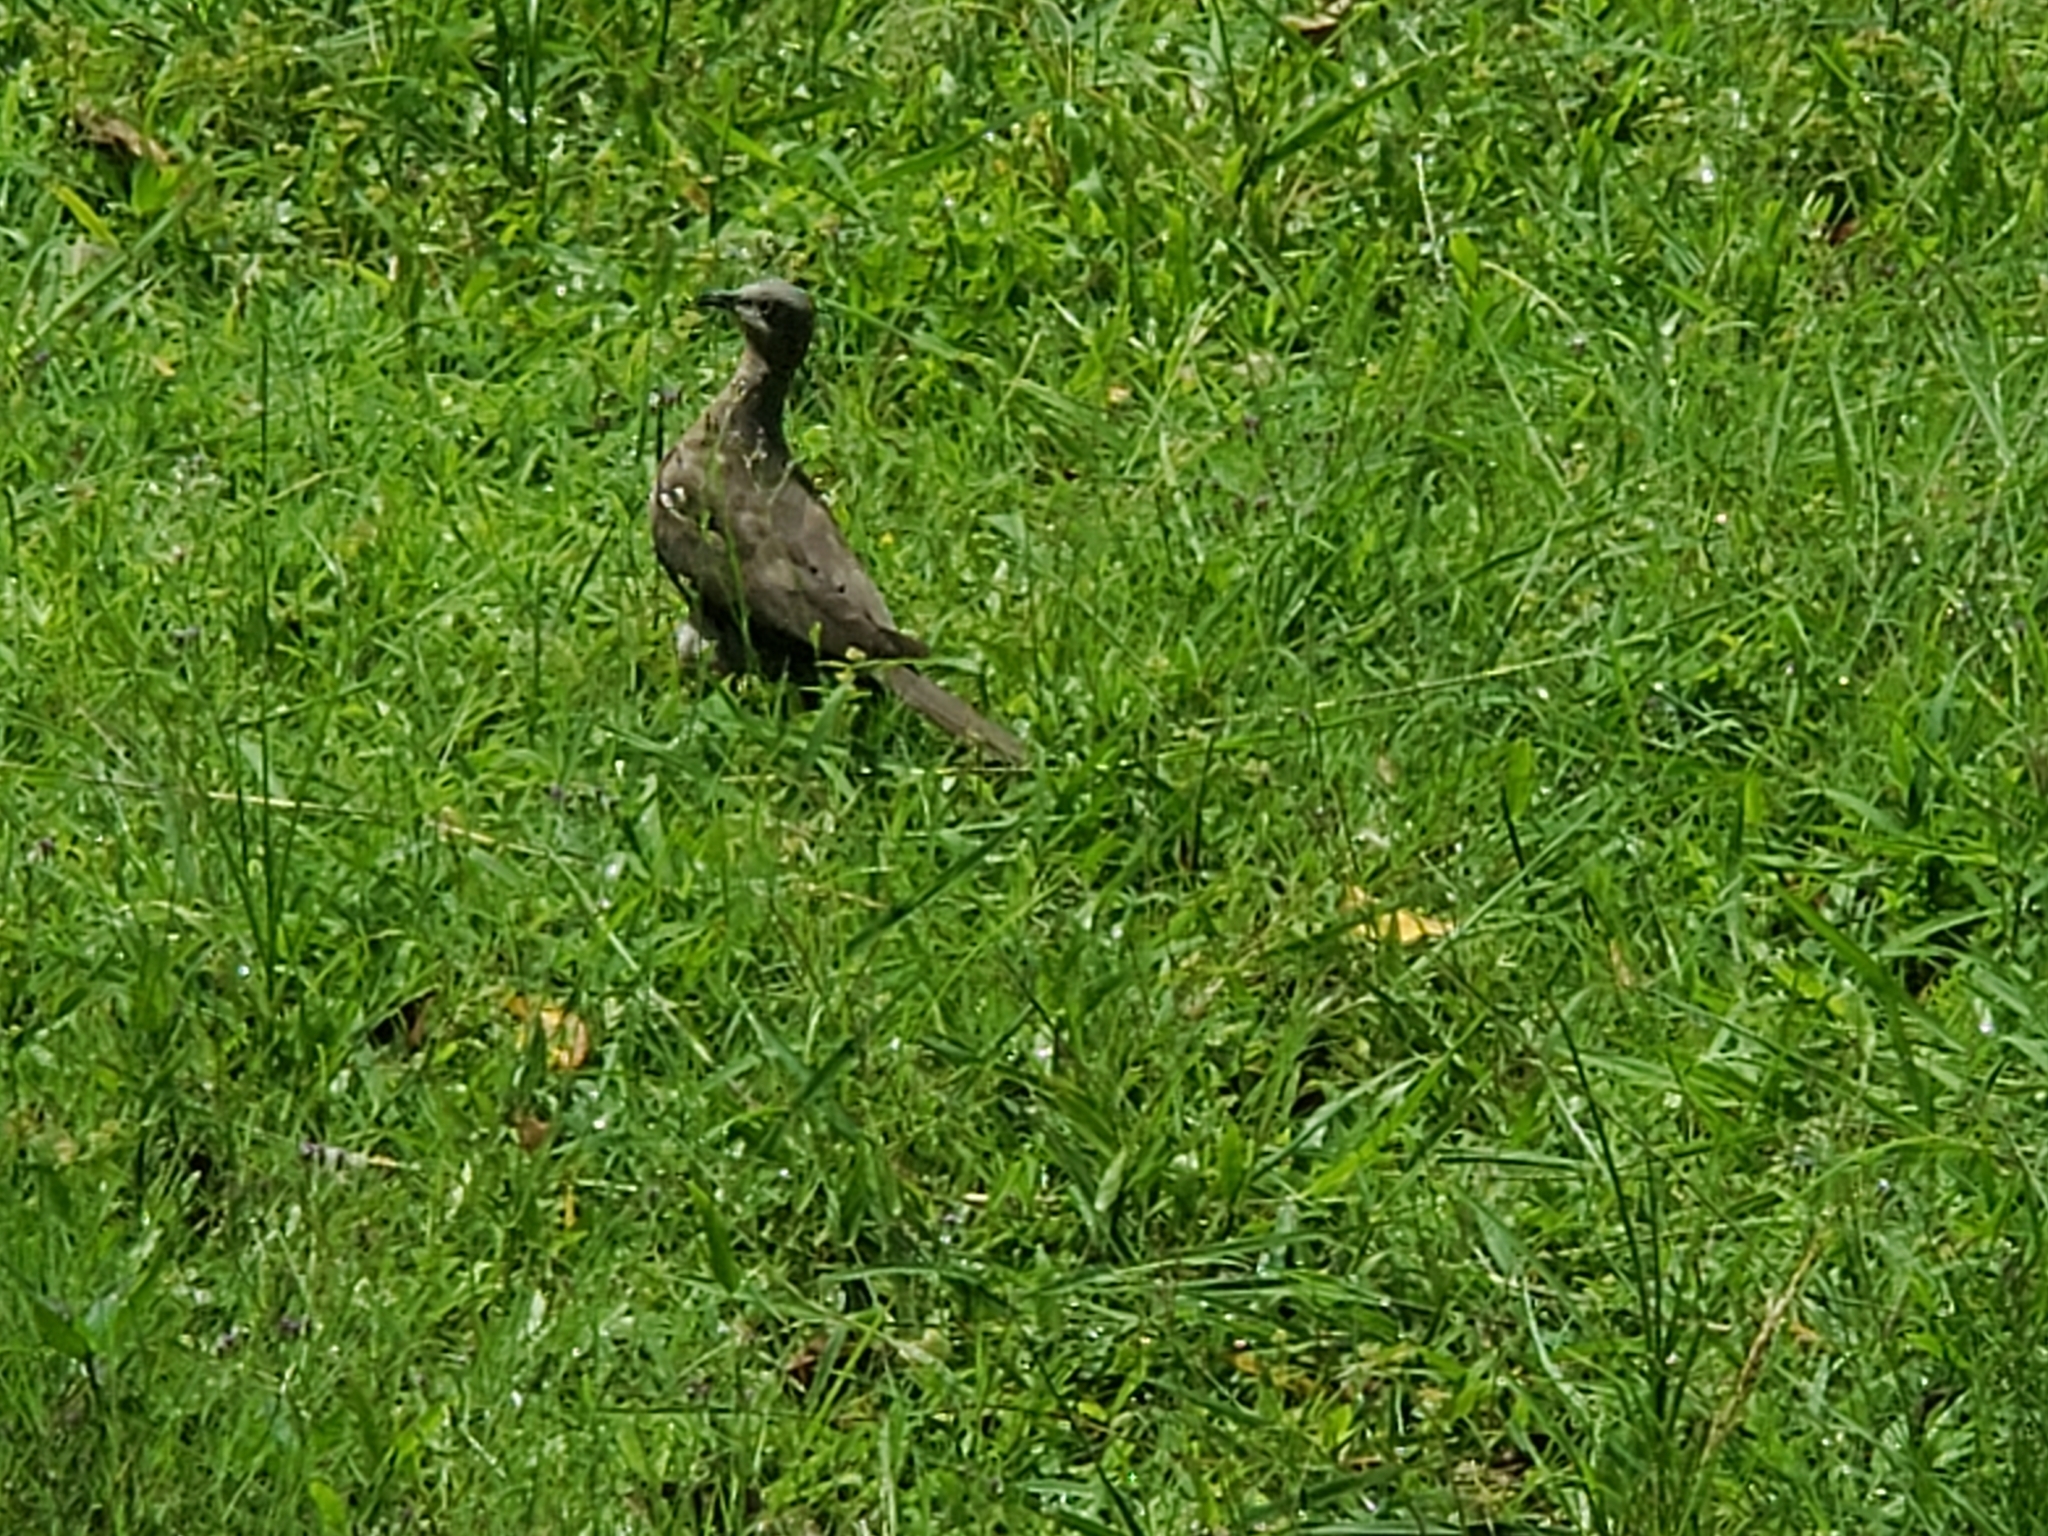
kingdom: Animalia
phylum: Chordata
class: Aves
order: Columbiformes
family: Columbidae
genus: Spilopelia
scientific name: Spilopelia chinensis
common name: Spotted dove
